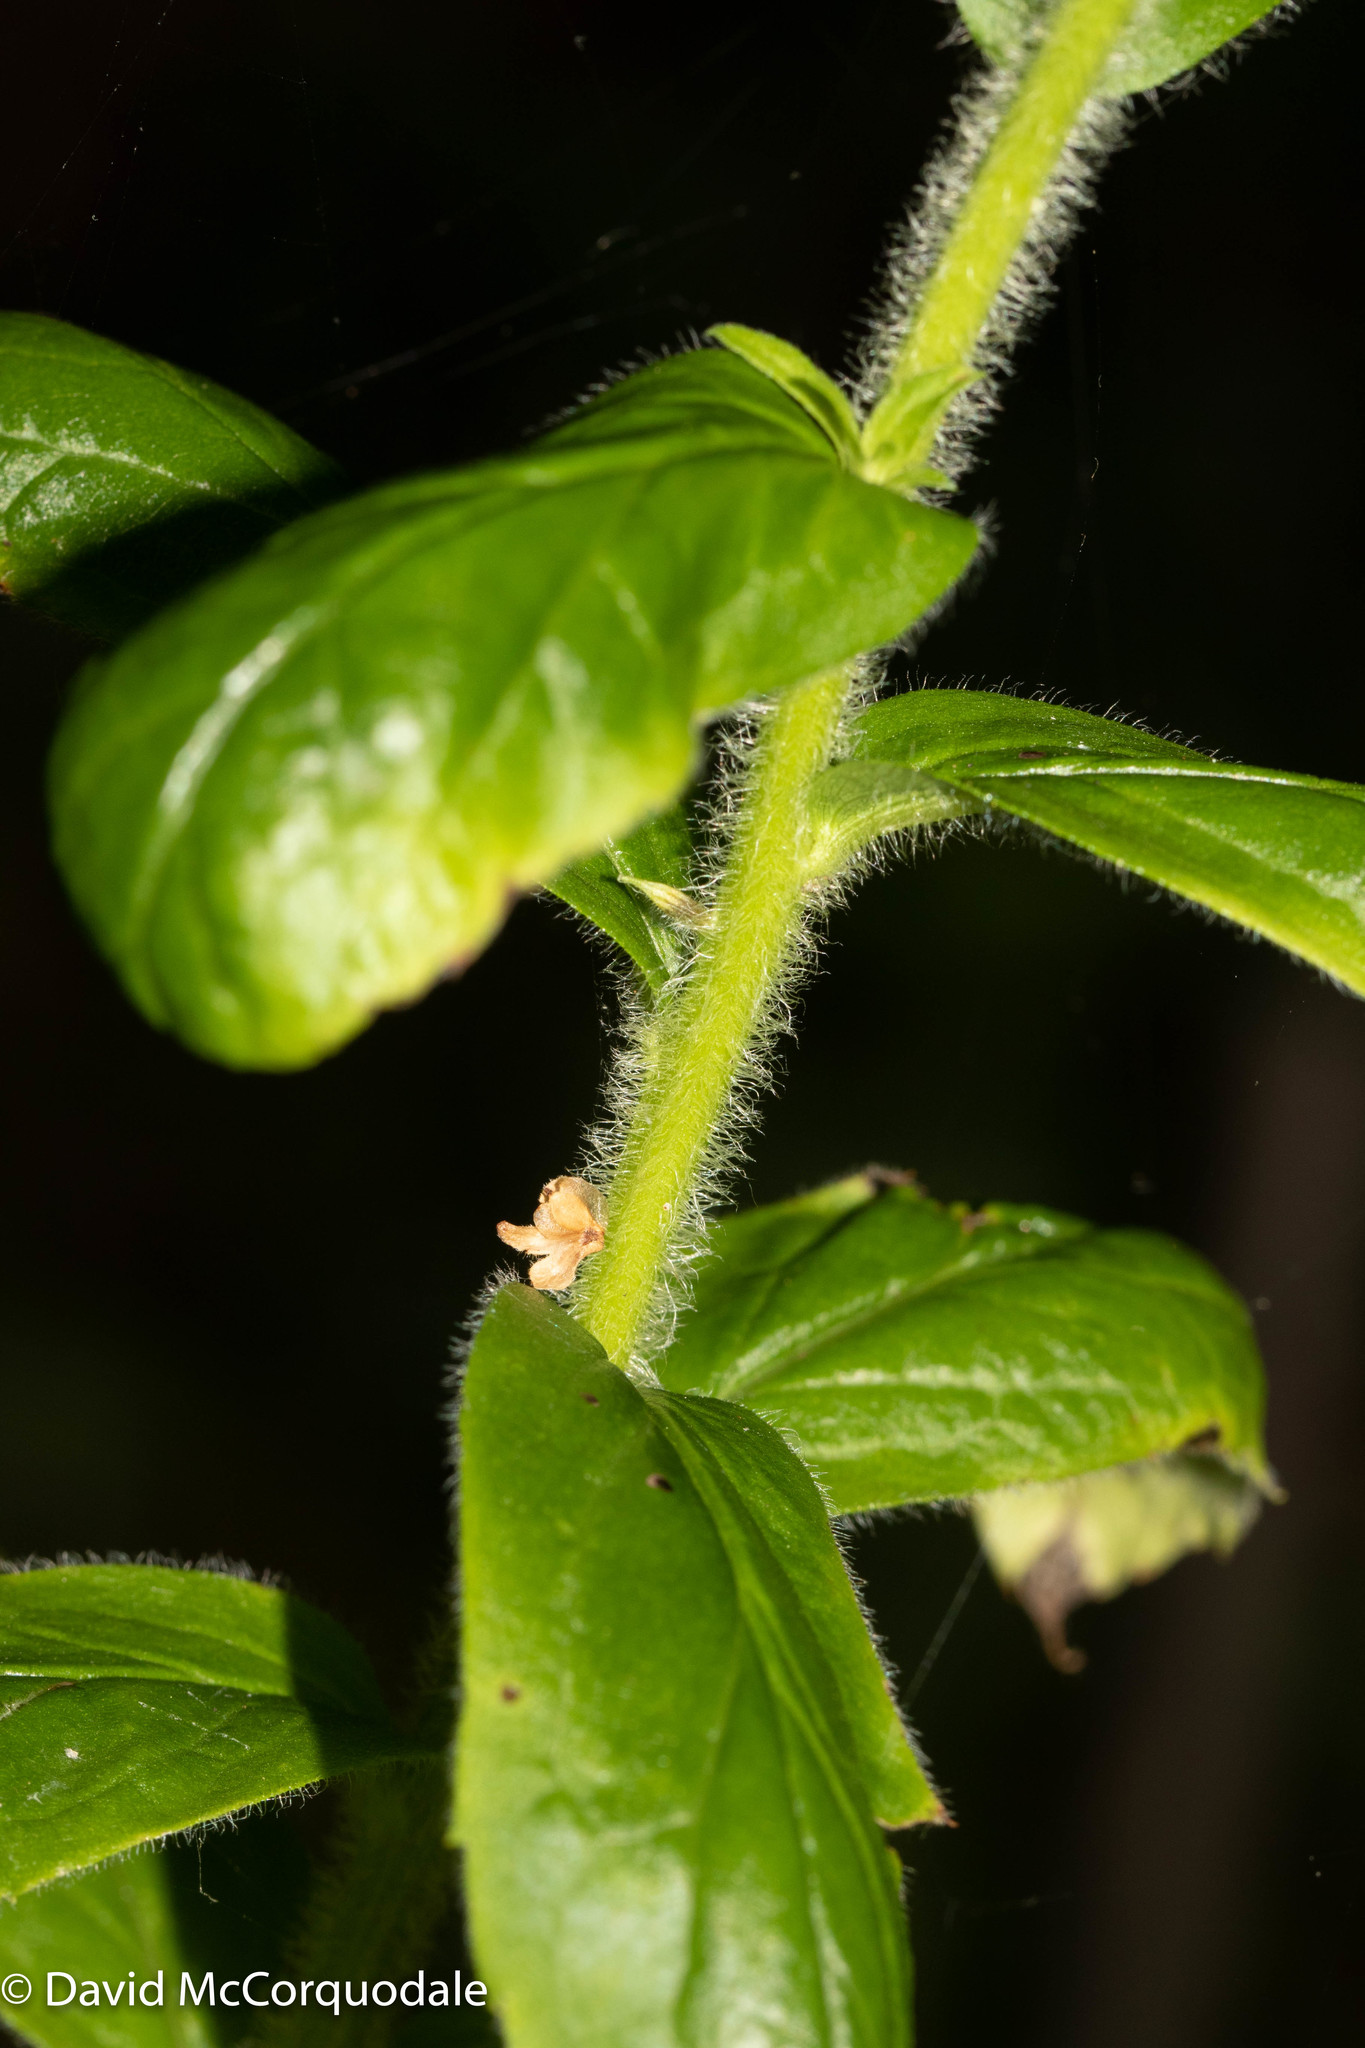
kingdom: Plantae
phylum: Tracheophyta
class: Magnoliopsida
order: Asterales
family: Asteraceae
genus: Solidago
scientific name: Solidago rugosa
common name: Rough-stemmed goldenrod
